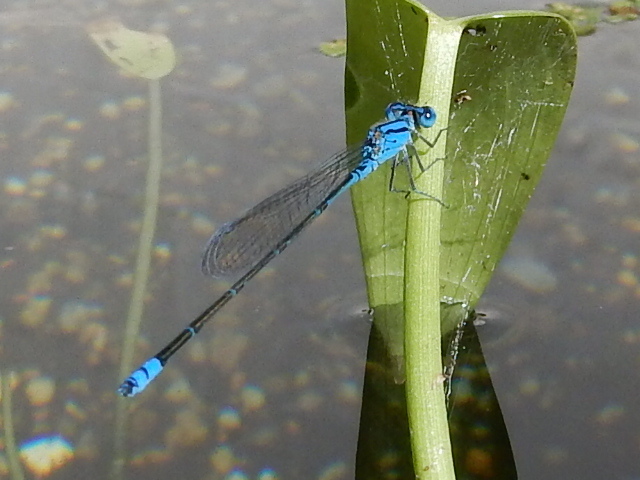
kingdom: Animalia
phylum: Arthropoda
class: Insecta
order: Odonata
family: Coenagrionidae
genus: Pseudagrion
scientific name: Pseudagrion microcephalum
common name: Blue riverdamsel
